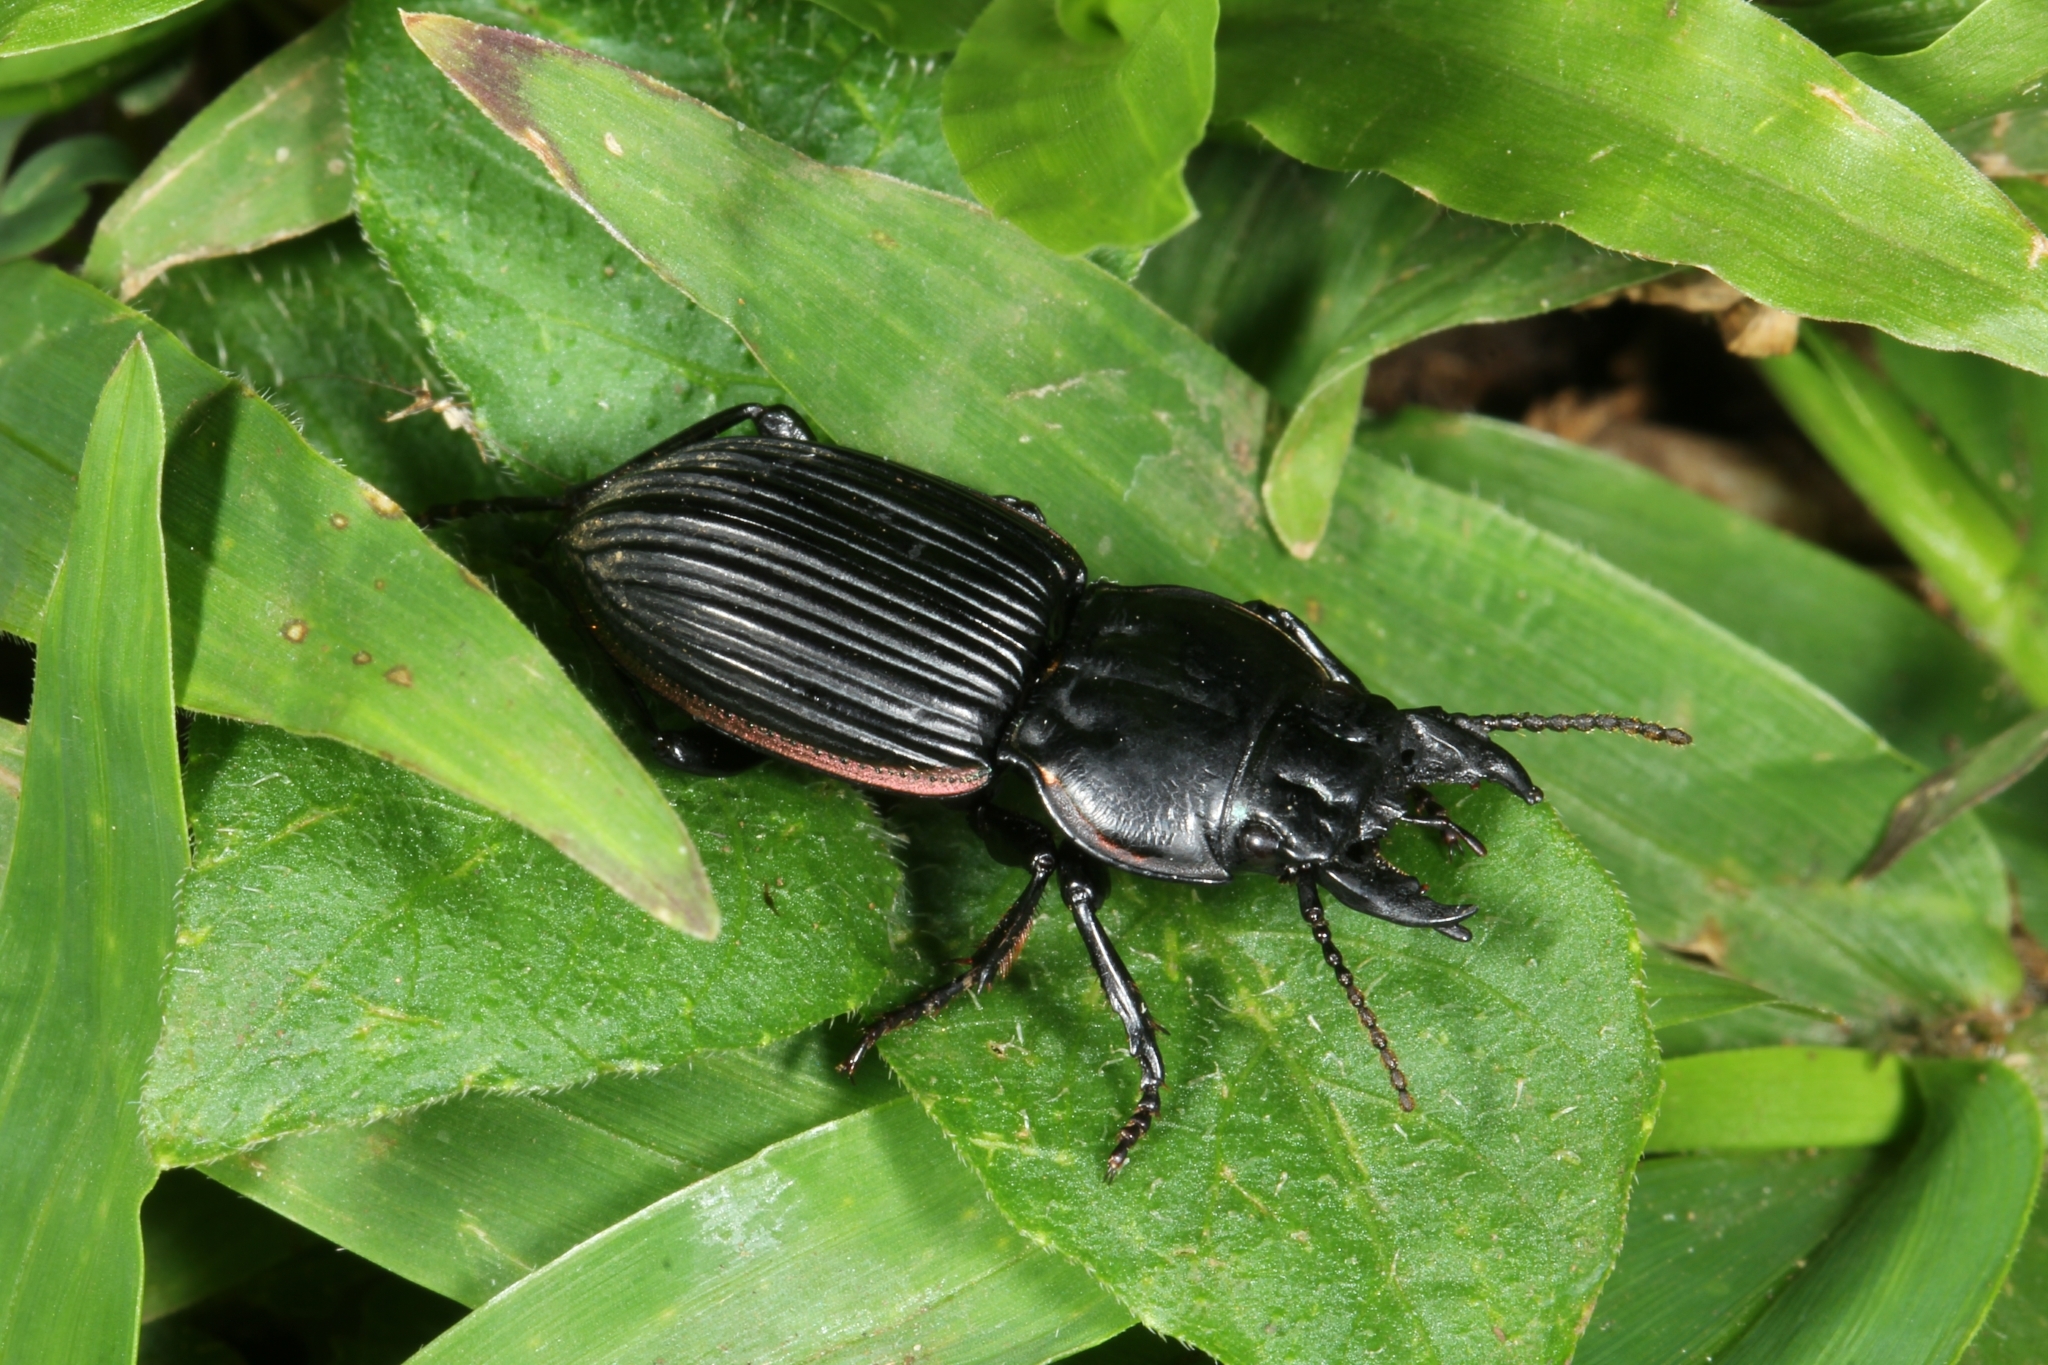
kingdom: Animalia
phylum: Arthropoda
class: Insecta
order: Coleoptera
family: Carabidae
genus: Pasimachus
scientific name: Pasimachus intermedius
